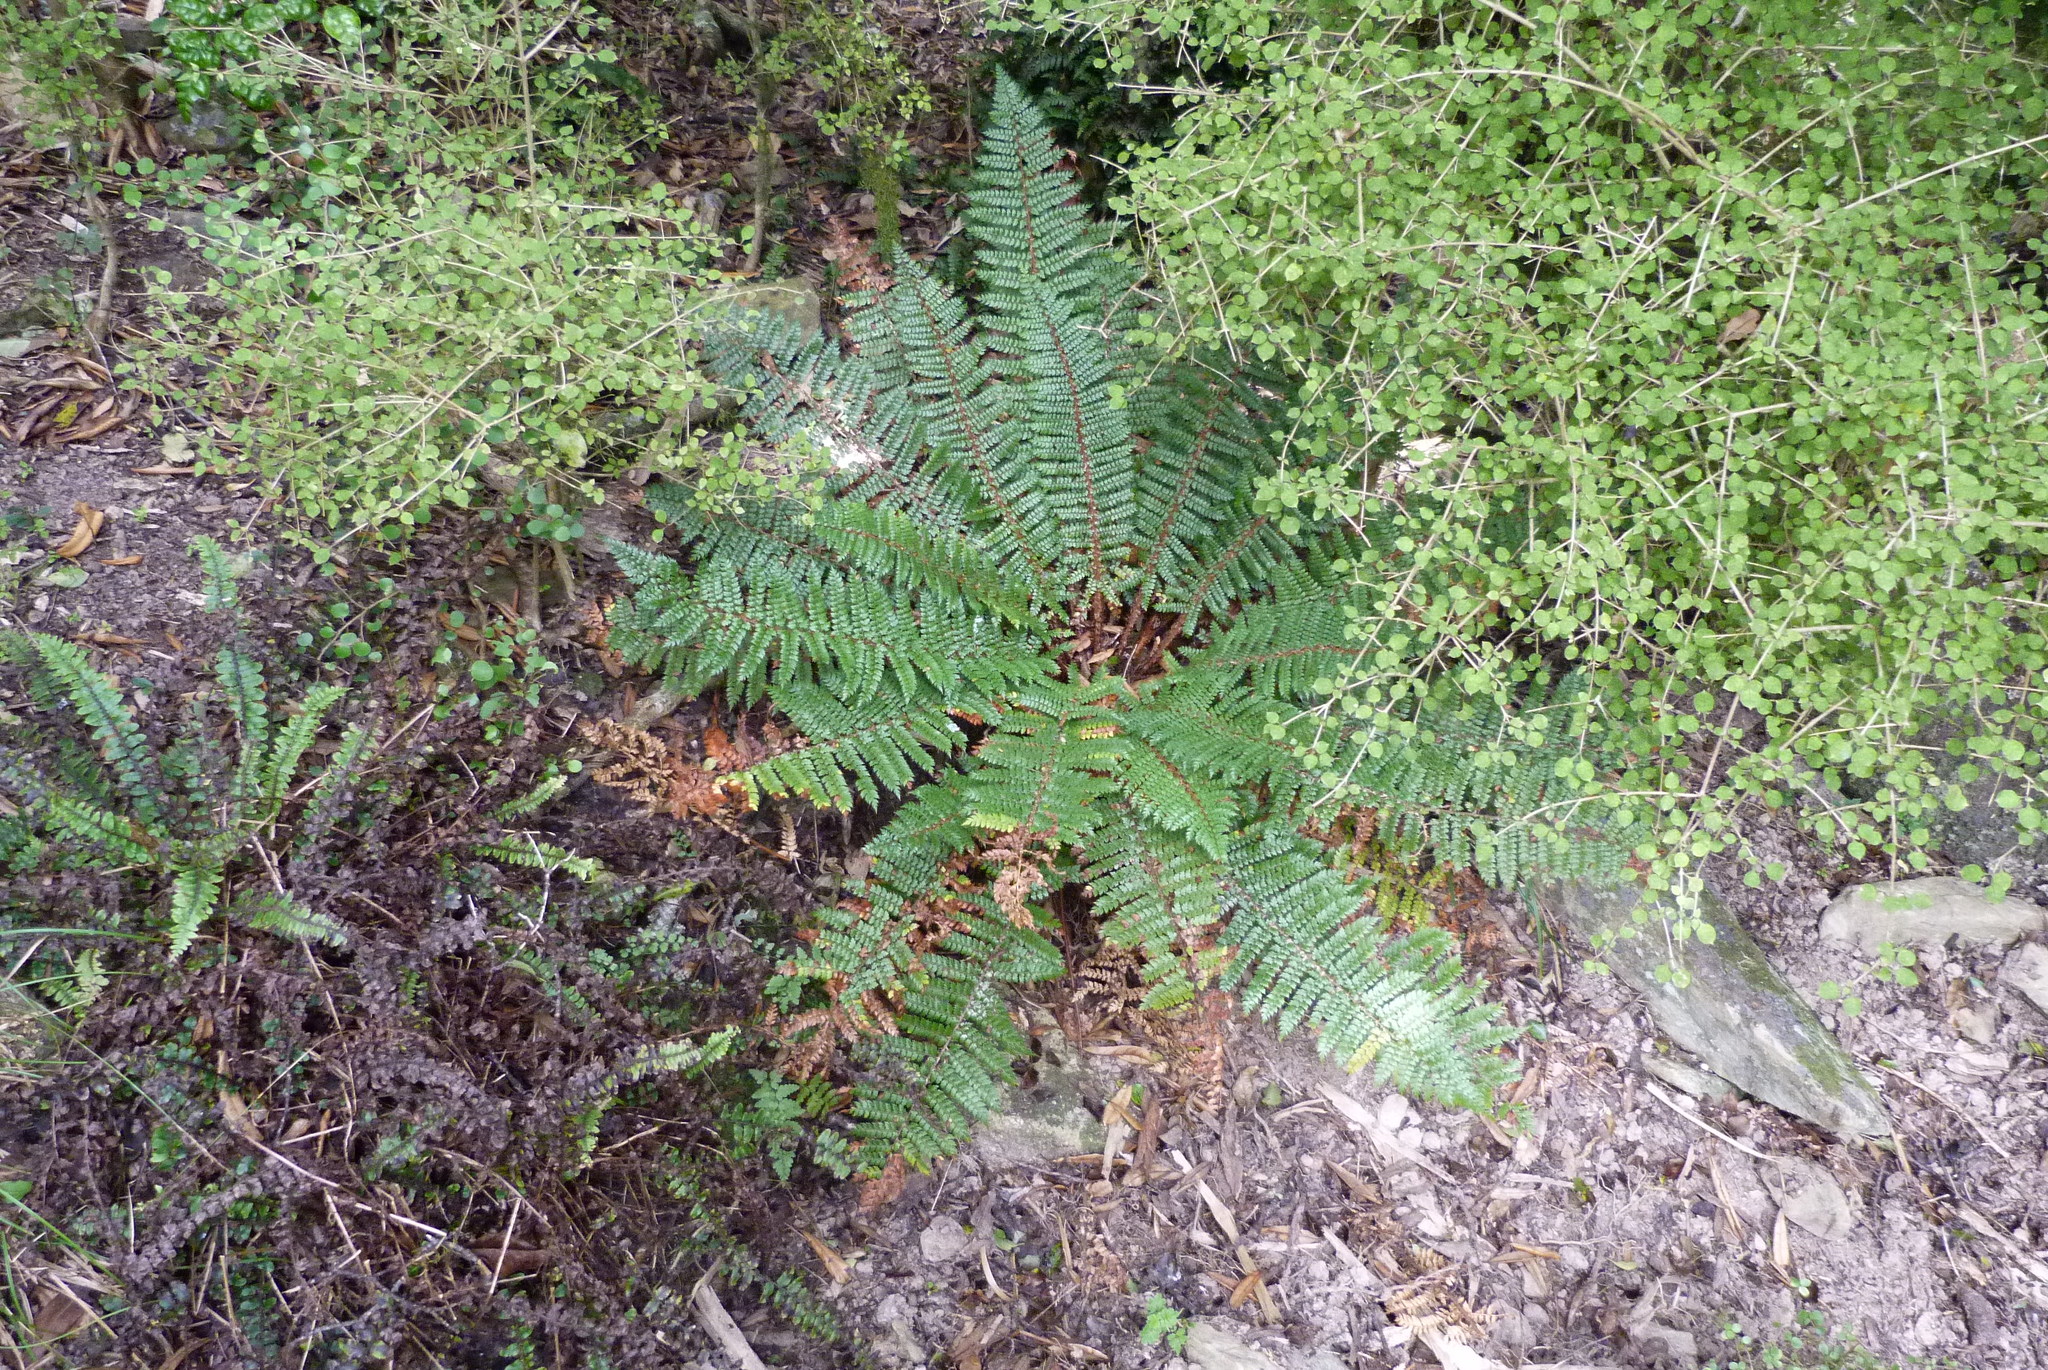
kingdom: Plantae
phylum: Tracheophyta
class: Polypodiopsida
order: Polypodiales
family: Dryopteridaceae
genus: Polystichum
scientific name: Polystichum vestitum
